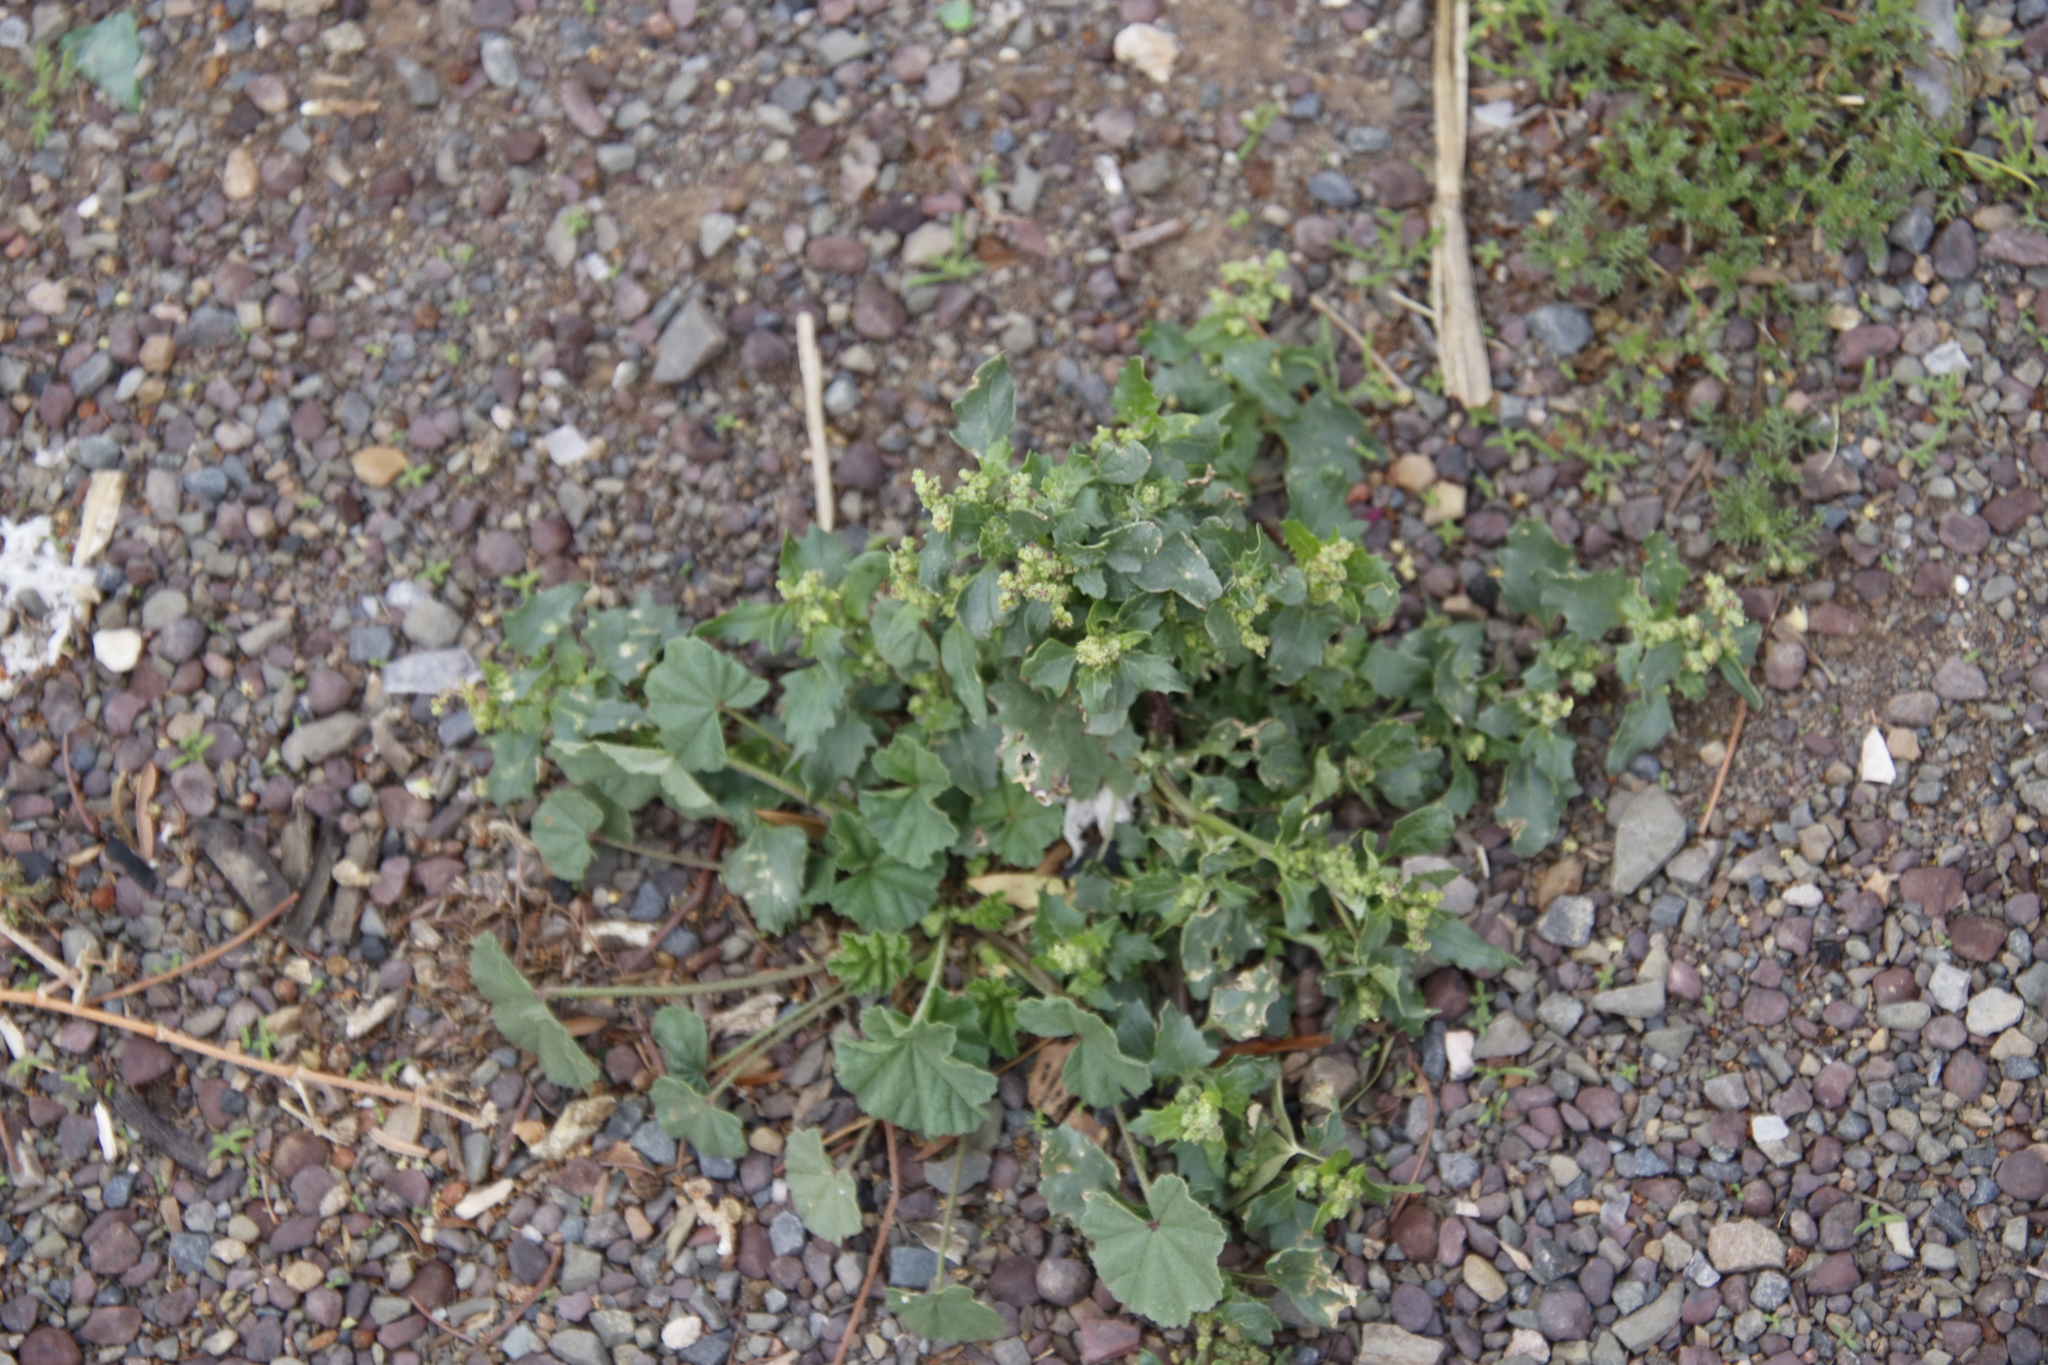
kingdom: Plantae
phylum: Tracheophyta
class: Magnoliopsida
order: Caryophyllales
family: Amaranthaceae
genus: Chenopodiastrum
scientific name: Chenopodiastrum murale
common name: Sowbane
